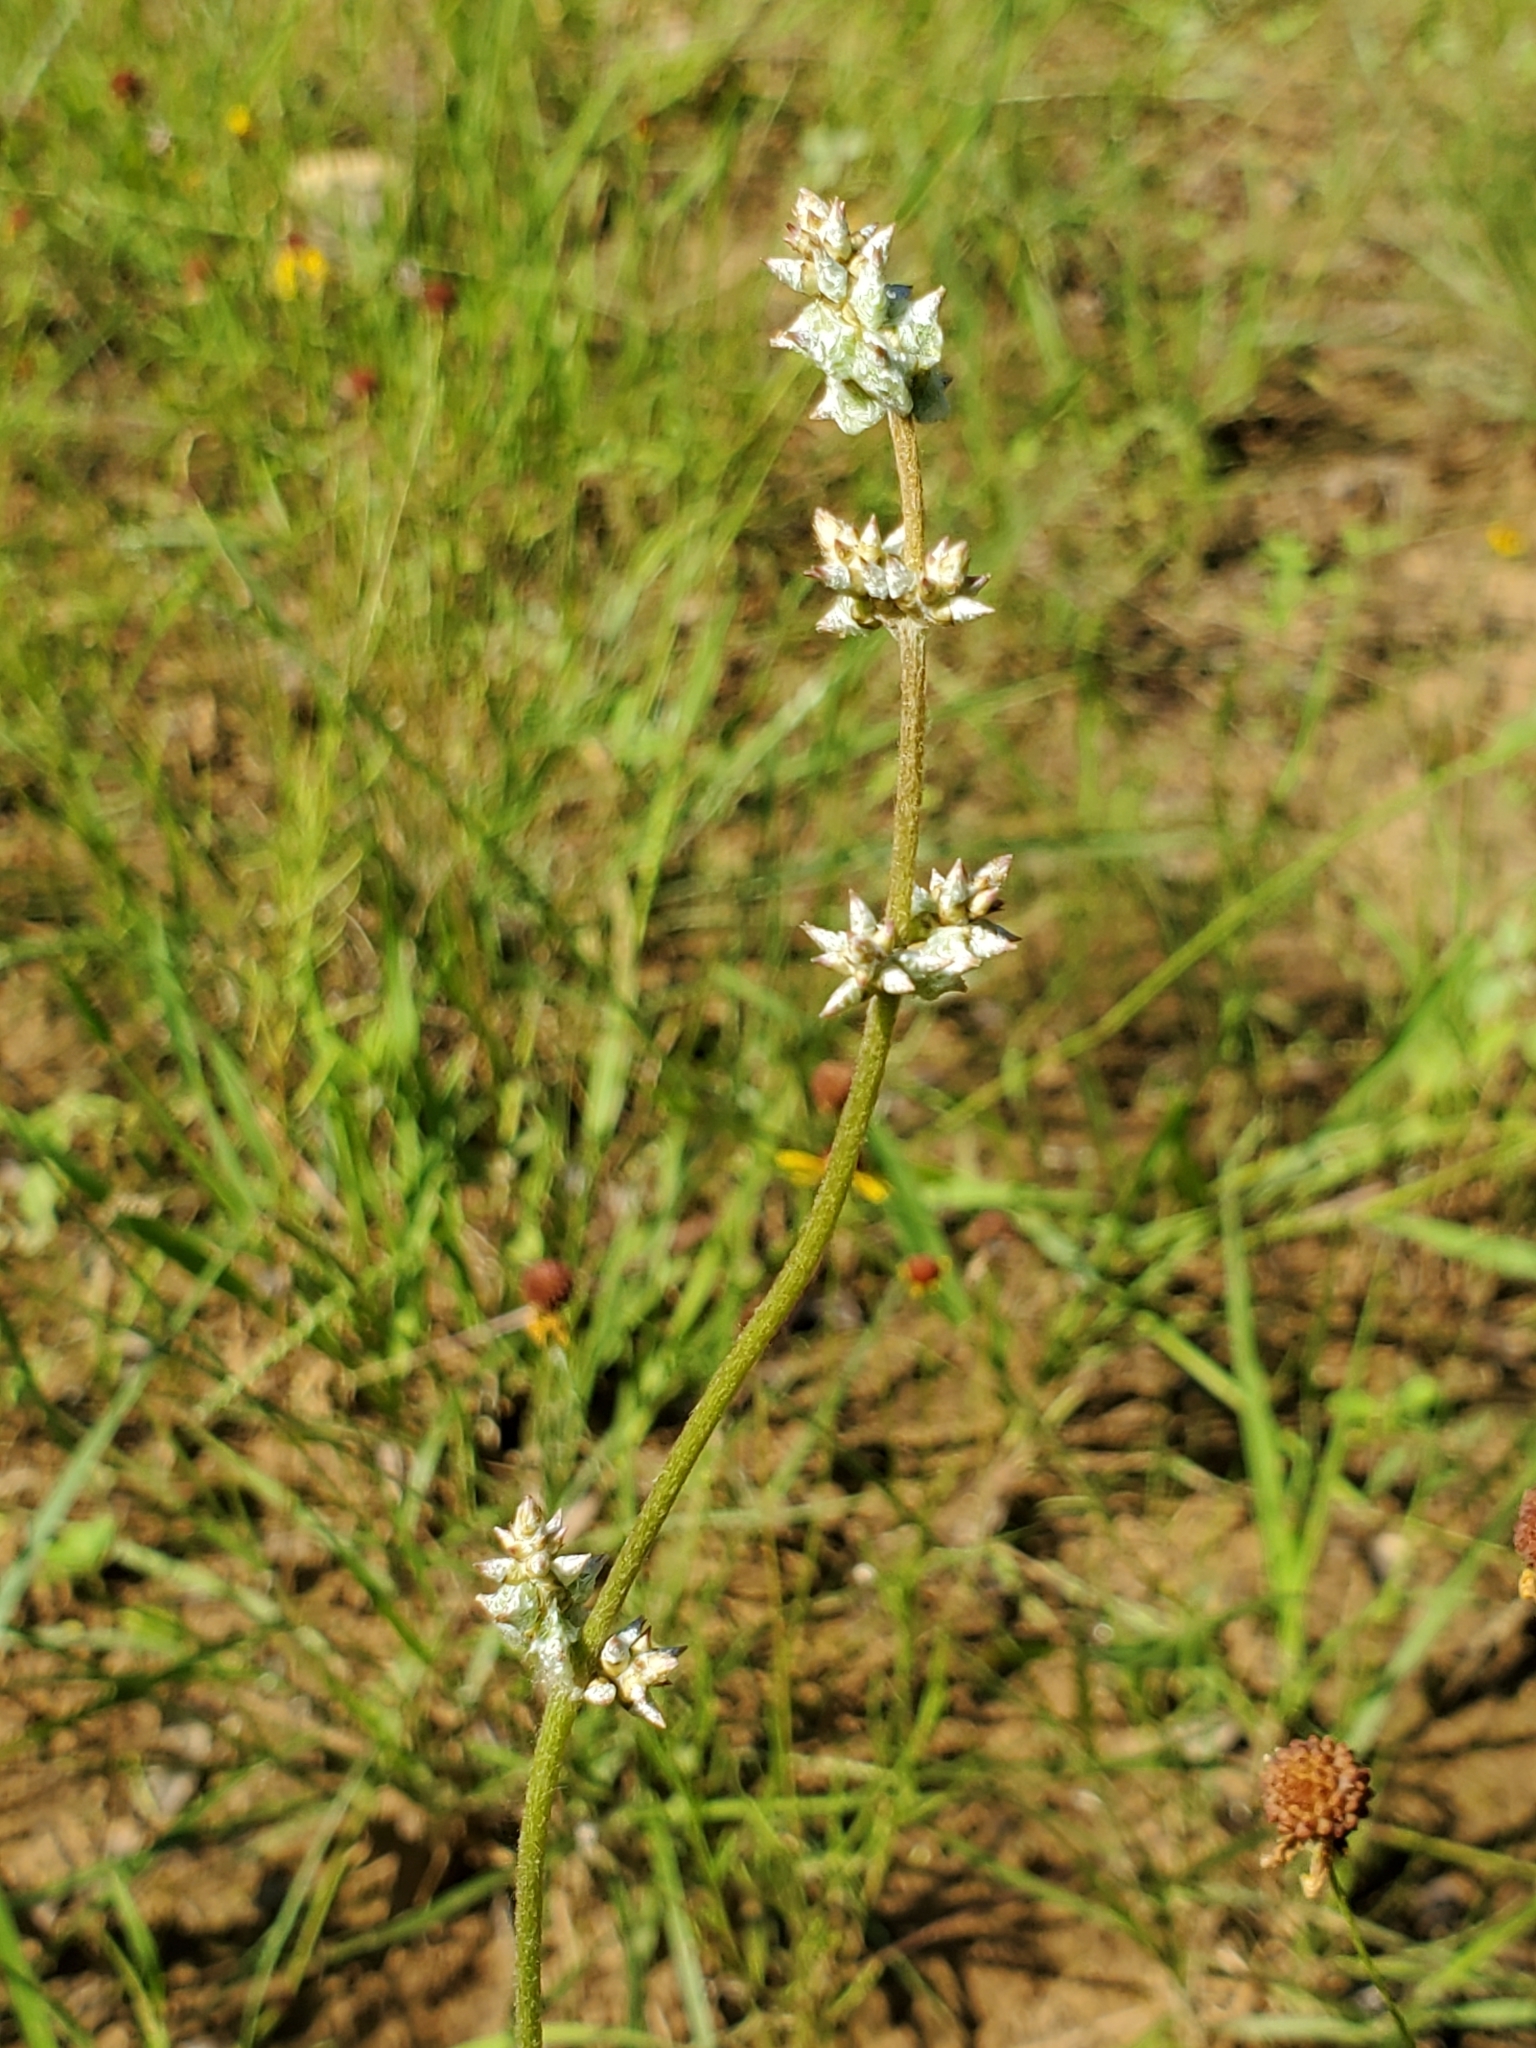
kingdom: Plantae
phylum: Tracheophyta
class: Magnoliopsida
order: Caryophyllales
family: Amaranthaceae
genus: Froelichia
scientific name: Froelichia gracilis
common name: Slender cottonweed
